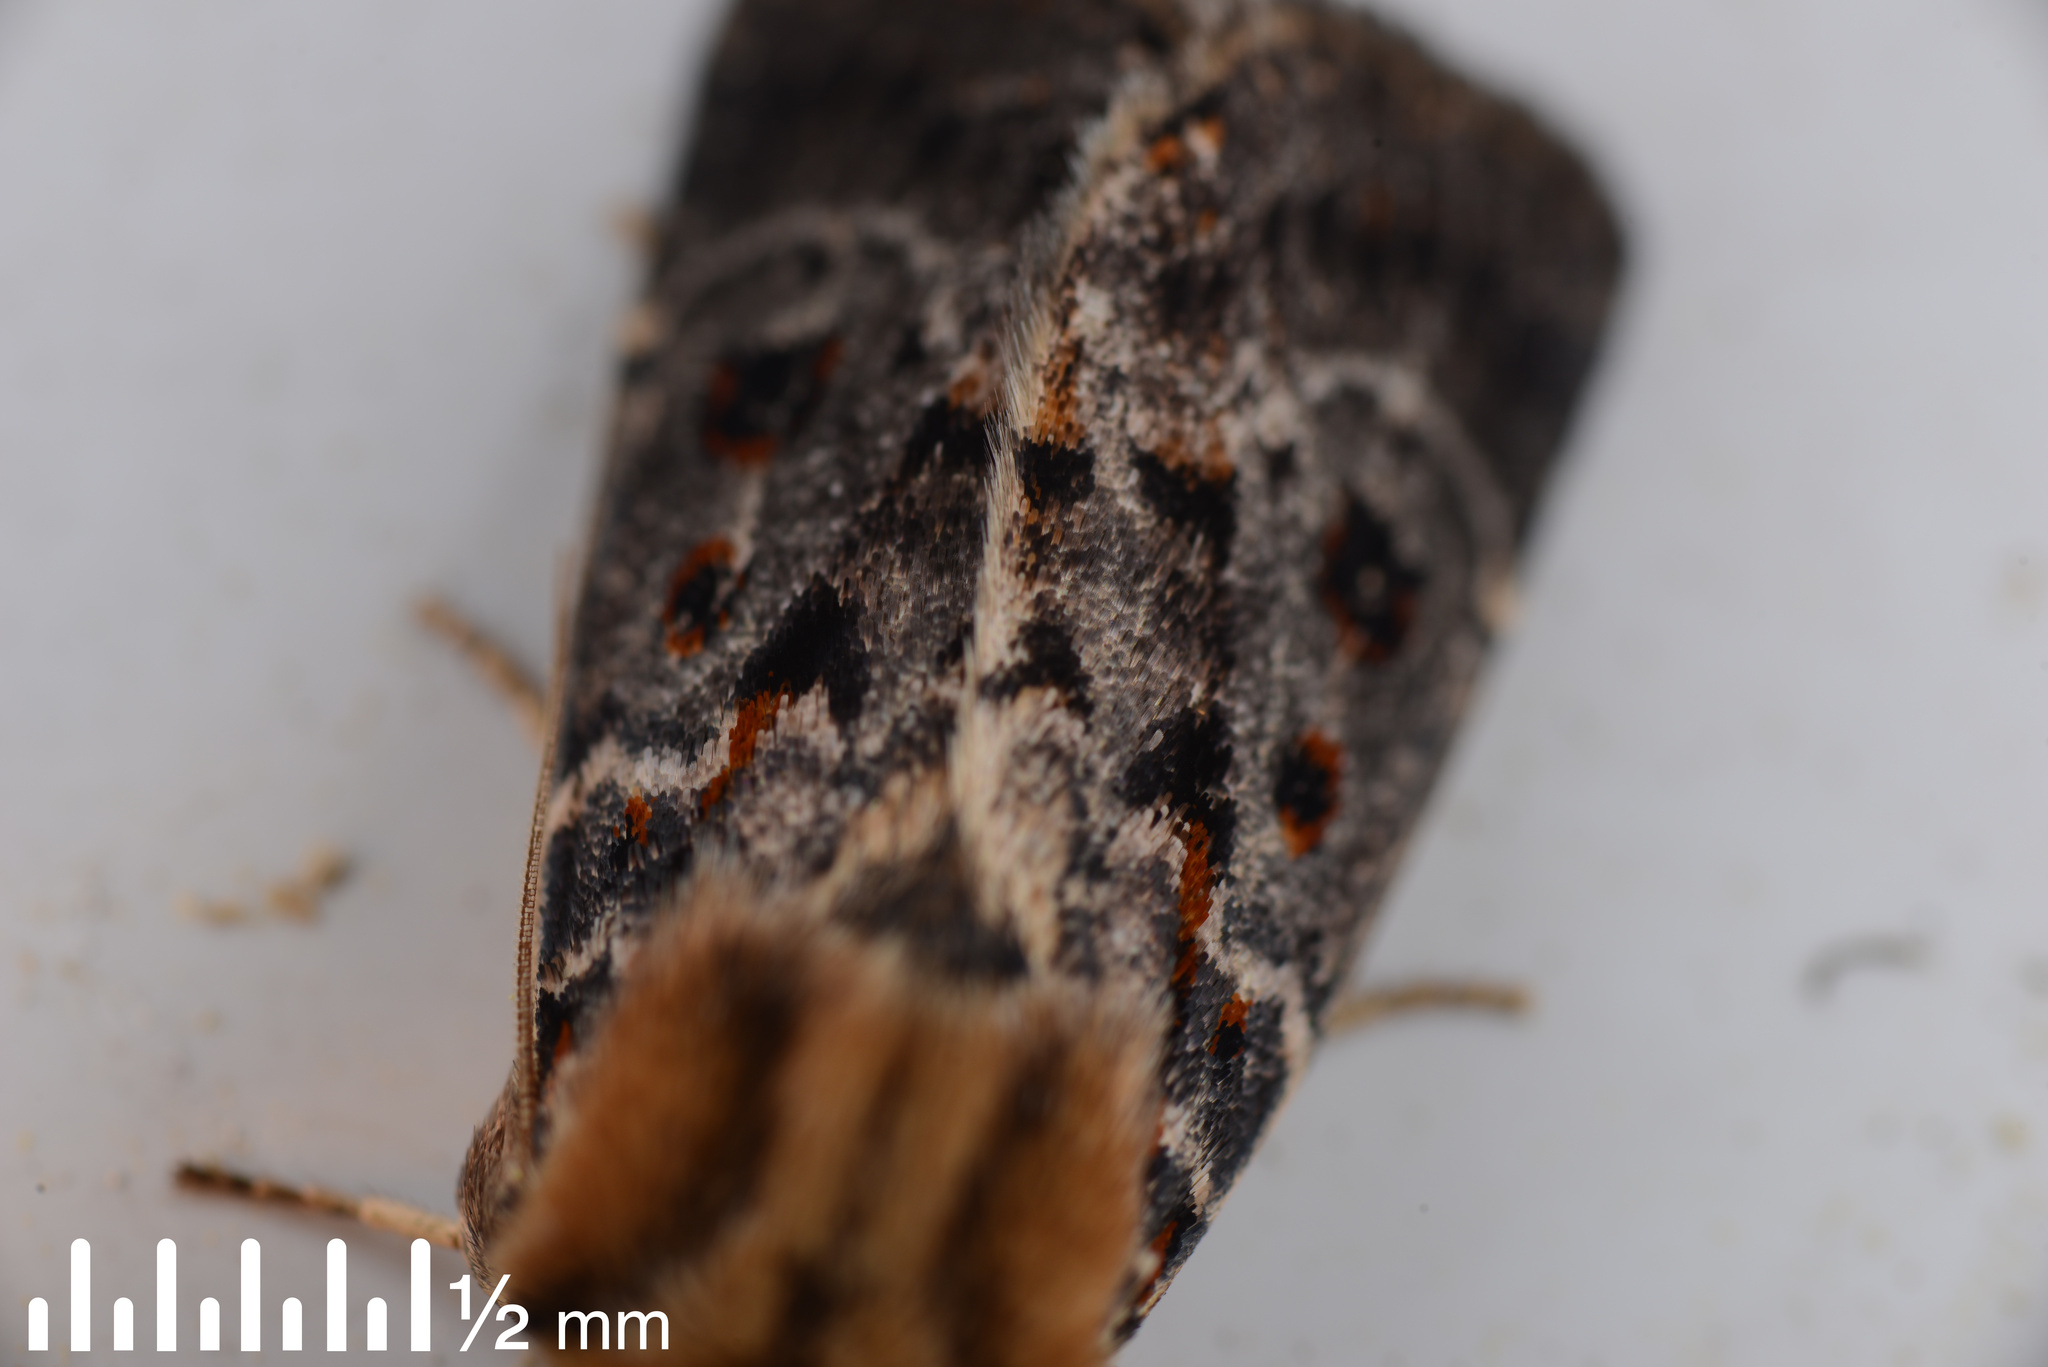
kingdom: Animalia
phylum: Arthropoda
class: Insecta
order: Lepidoptera
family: Noctuidae
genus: Proteuxoa
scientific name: Proteuxoa sanguinipuncta
